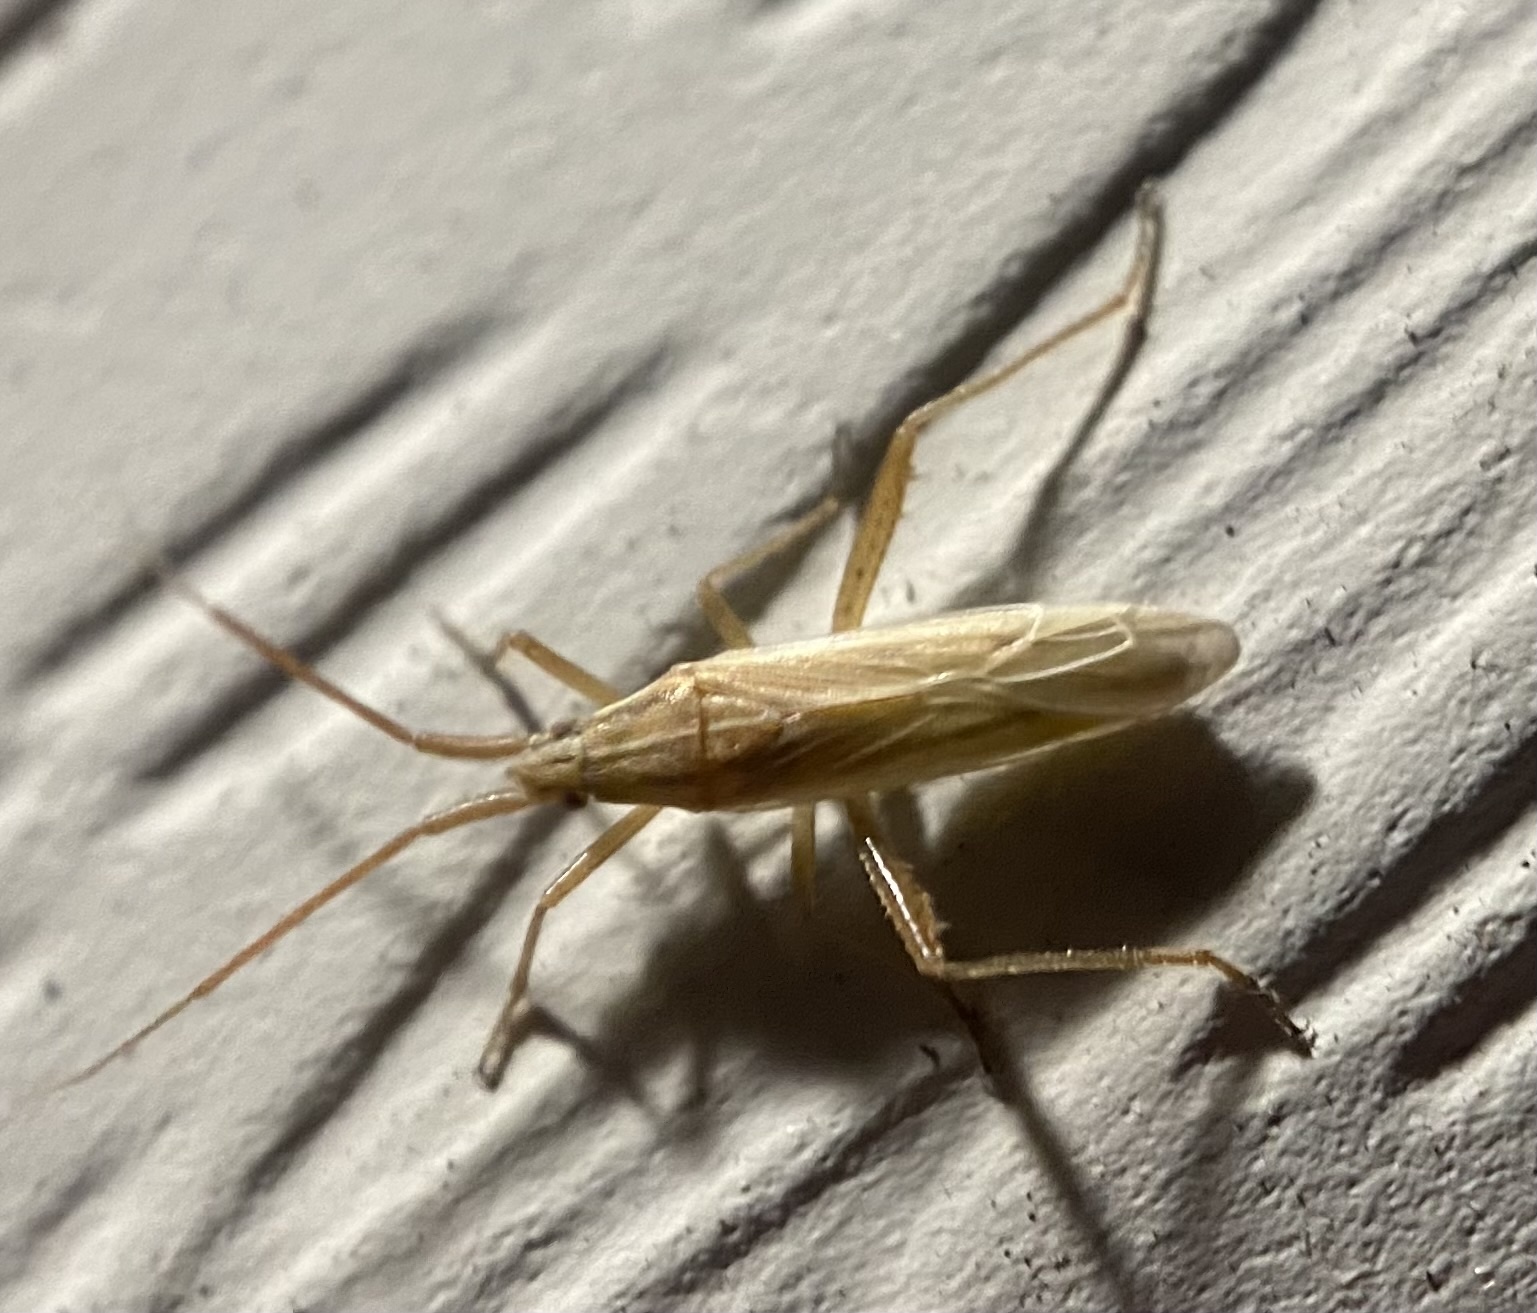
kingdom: Animalia
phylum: Arthropoda
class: Insecta
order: Hemiptera
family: Miridae
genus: Stenodema
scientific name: Stenodema trispinosa
